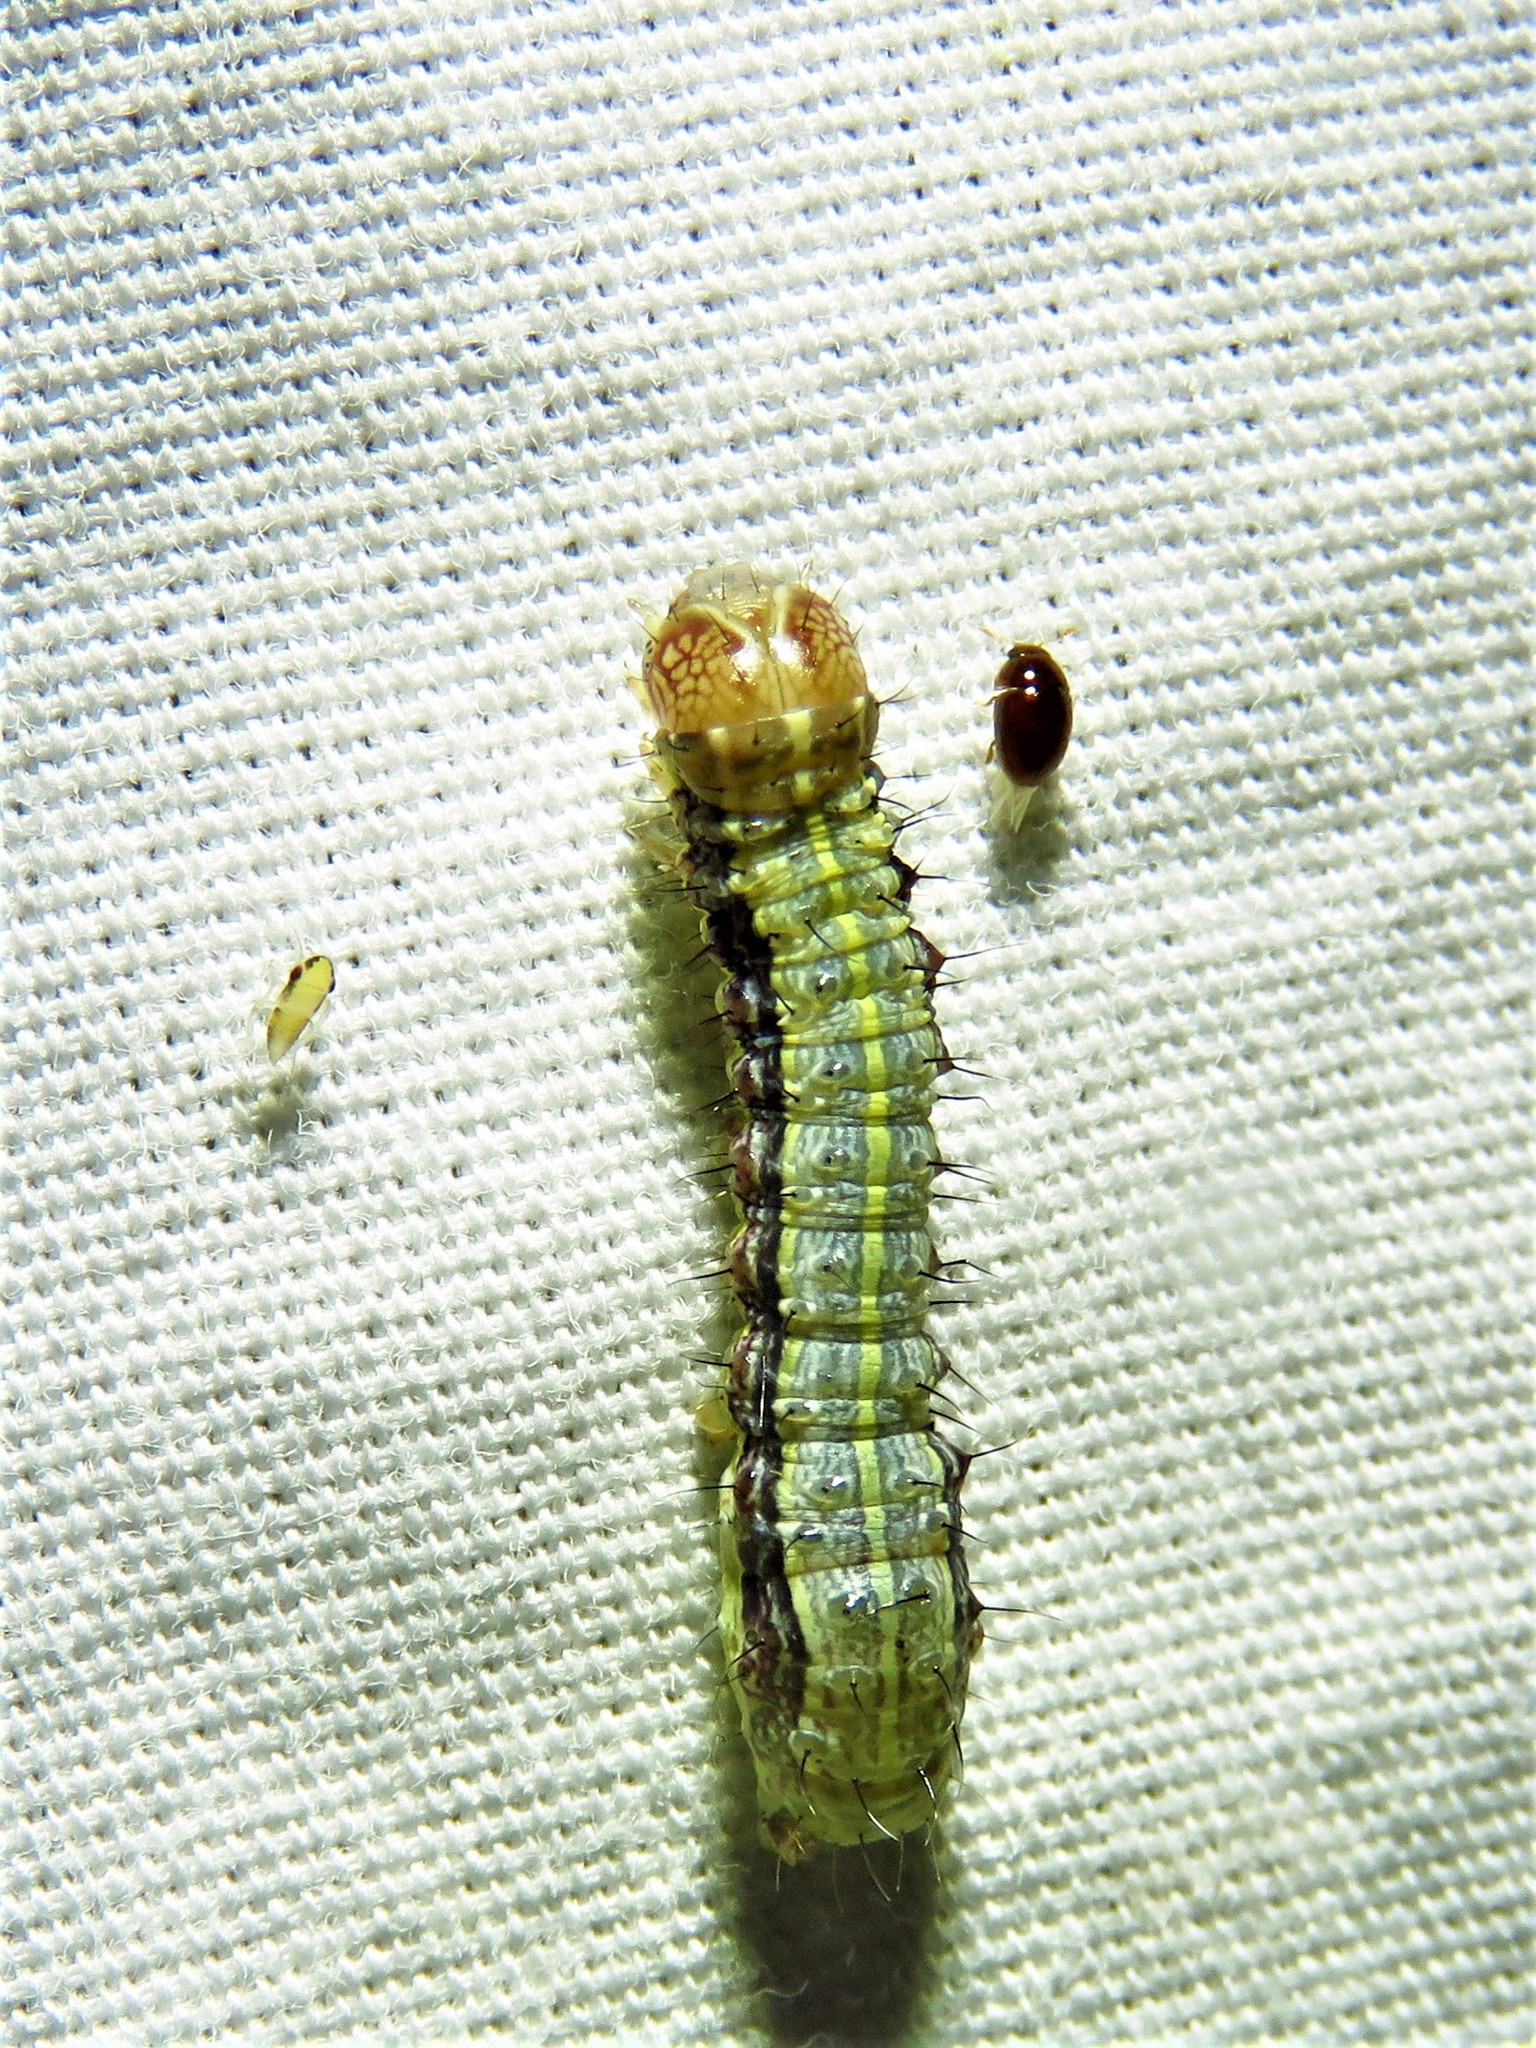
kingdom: Animalia
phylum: Arthropoda
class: Insecta
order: Lepidoptera
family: Noctuidae
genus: Spodoptera
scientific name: Spodoptera frugiperda
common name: Fall armyworm
